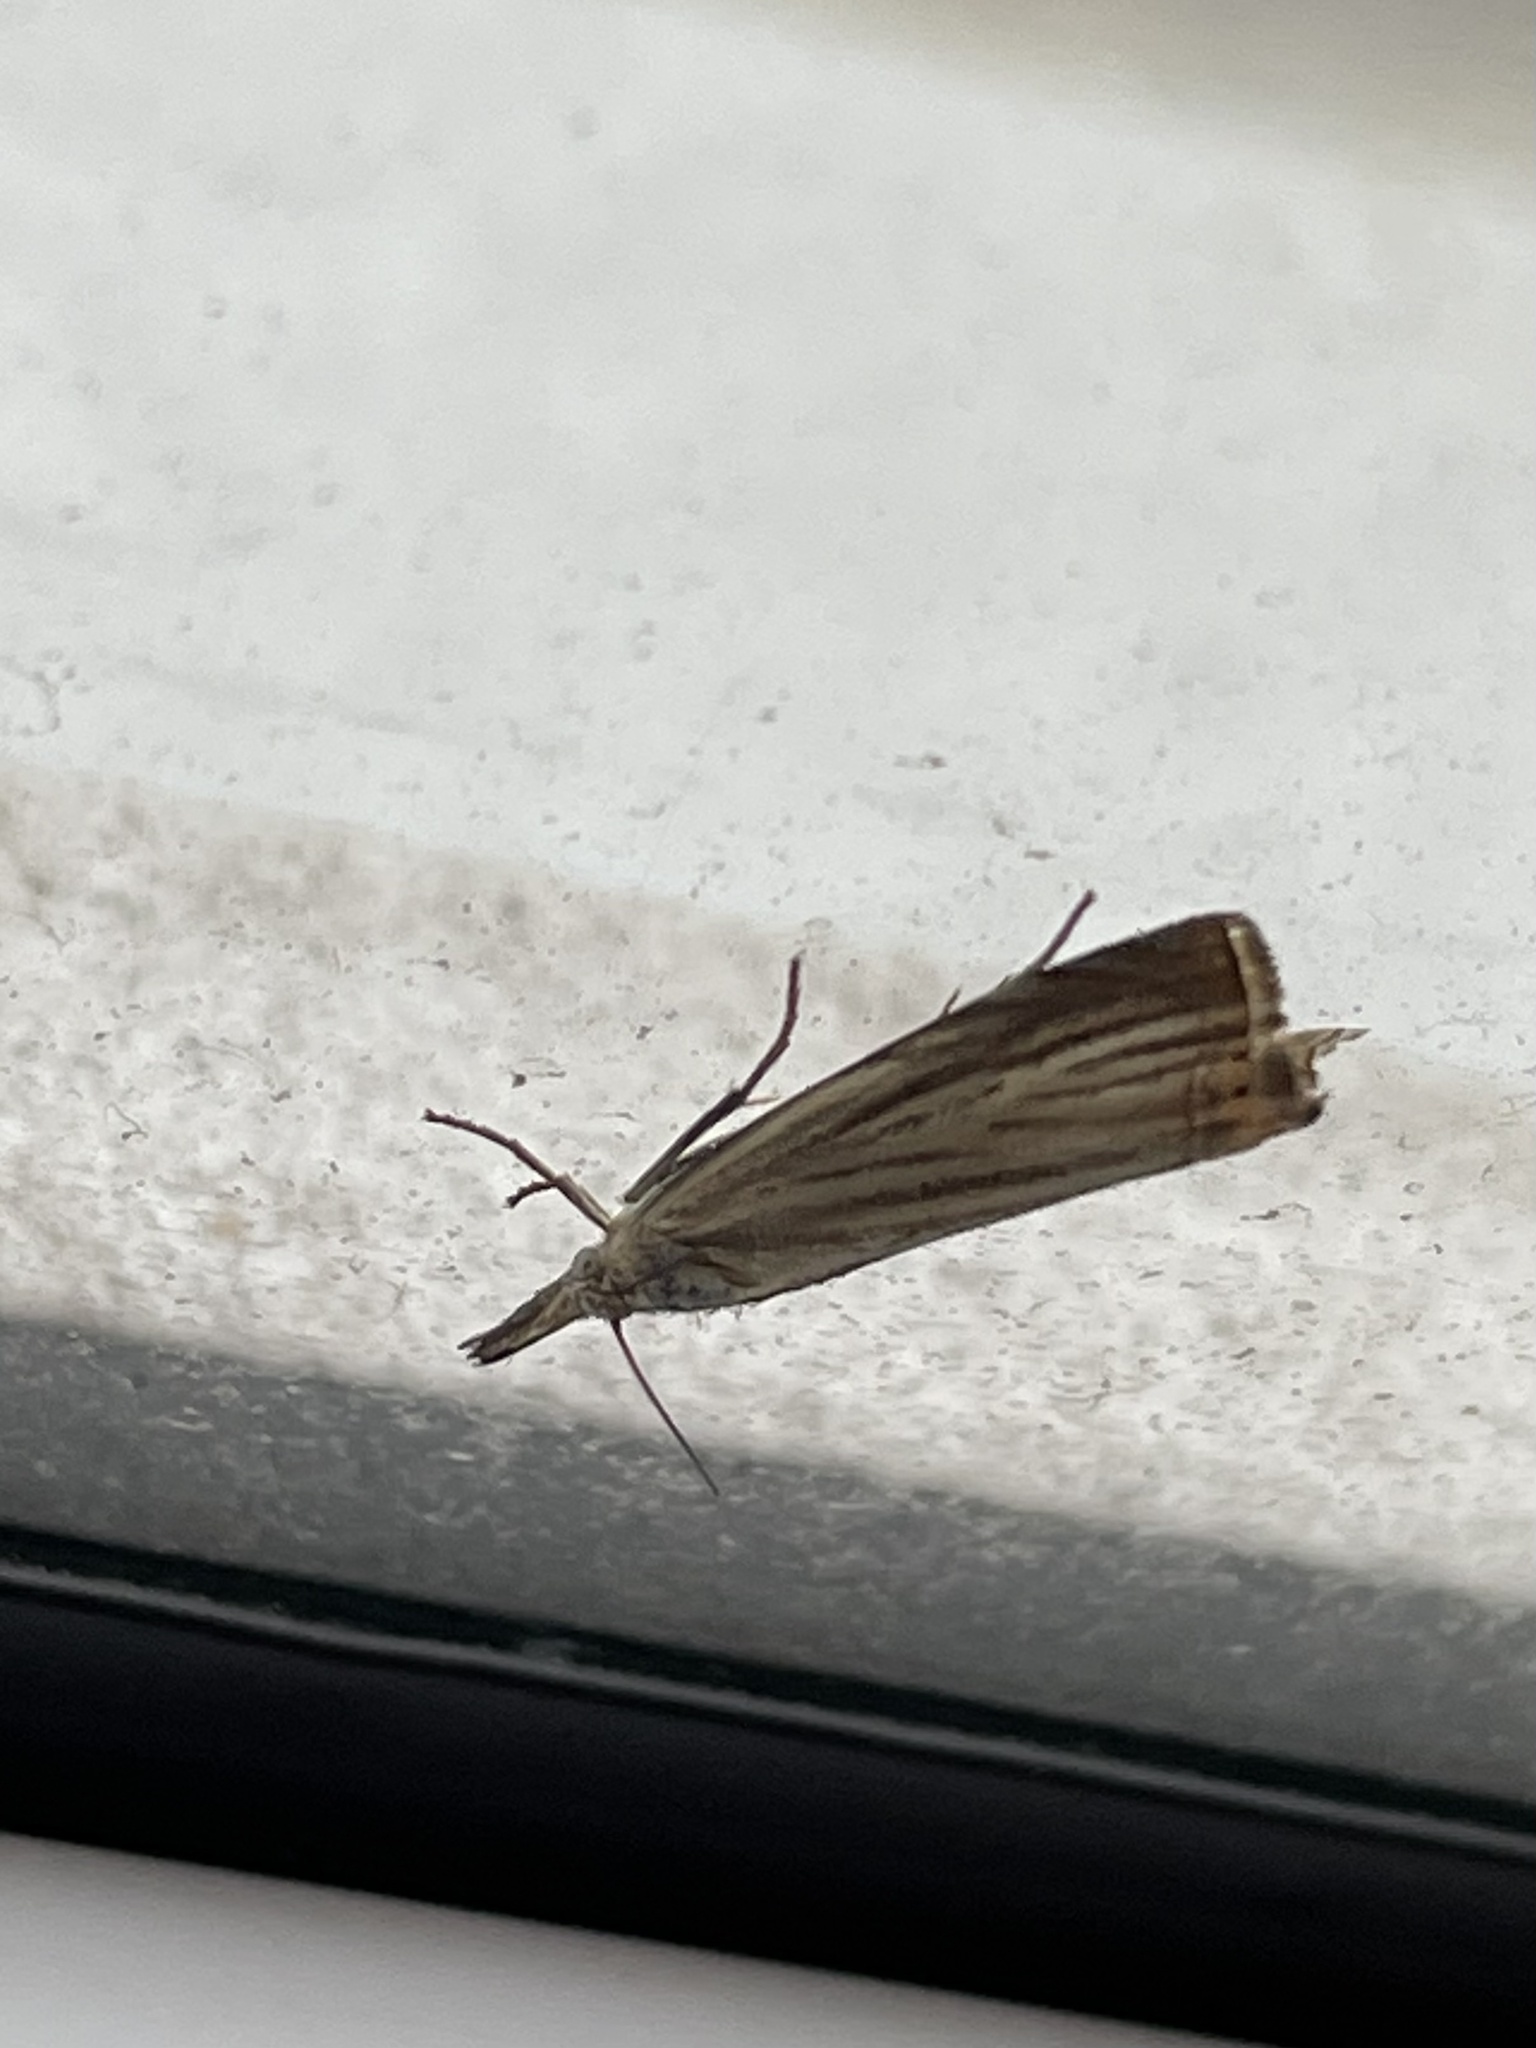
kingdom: Animalia
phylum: Arthropoda
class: Insecta
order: Lepidoptera
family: Crambidae
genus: Chrysoteuchia
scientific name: Chrysoteuchia culmella
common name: Garden grass-veneer
